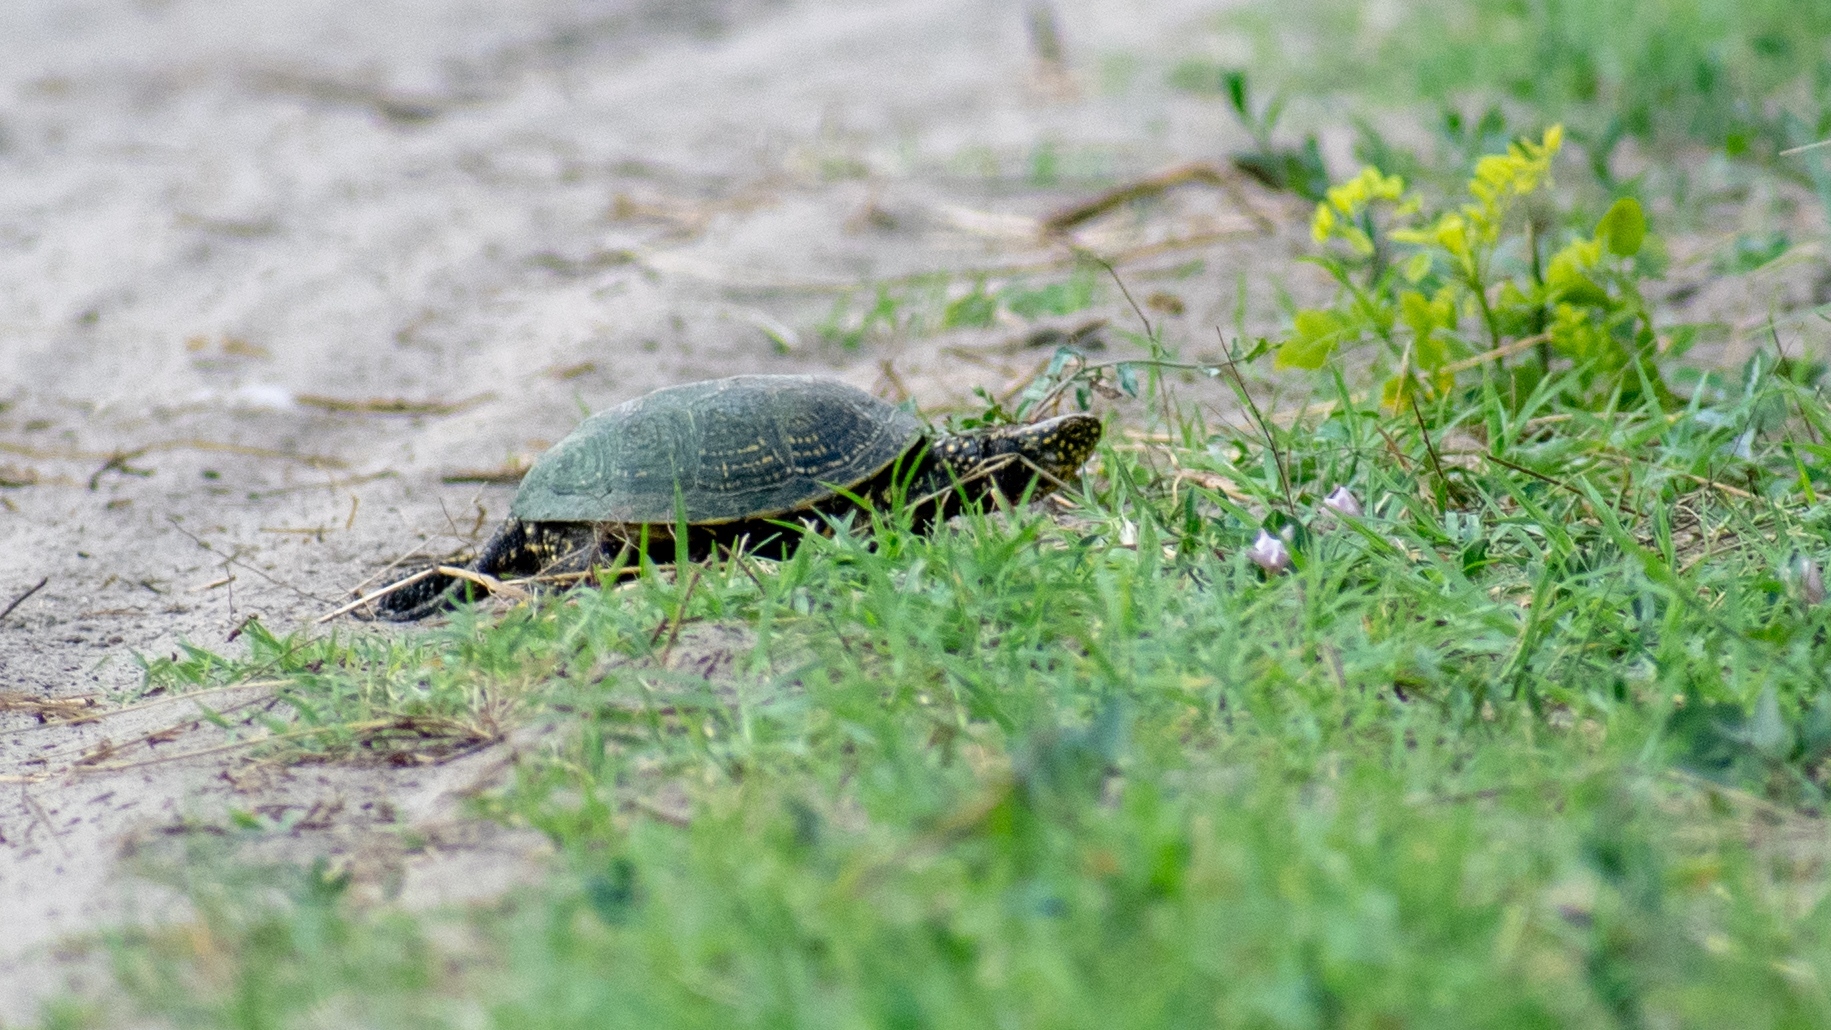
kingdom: Animalia
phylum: Chordata
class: Testudines
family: Emydidae
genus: Emys
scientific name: Emys orbicularis
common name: European pond turtle
